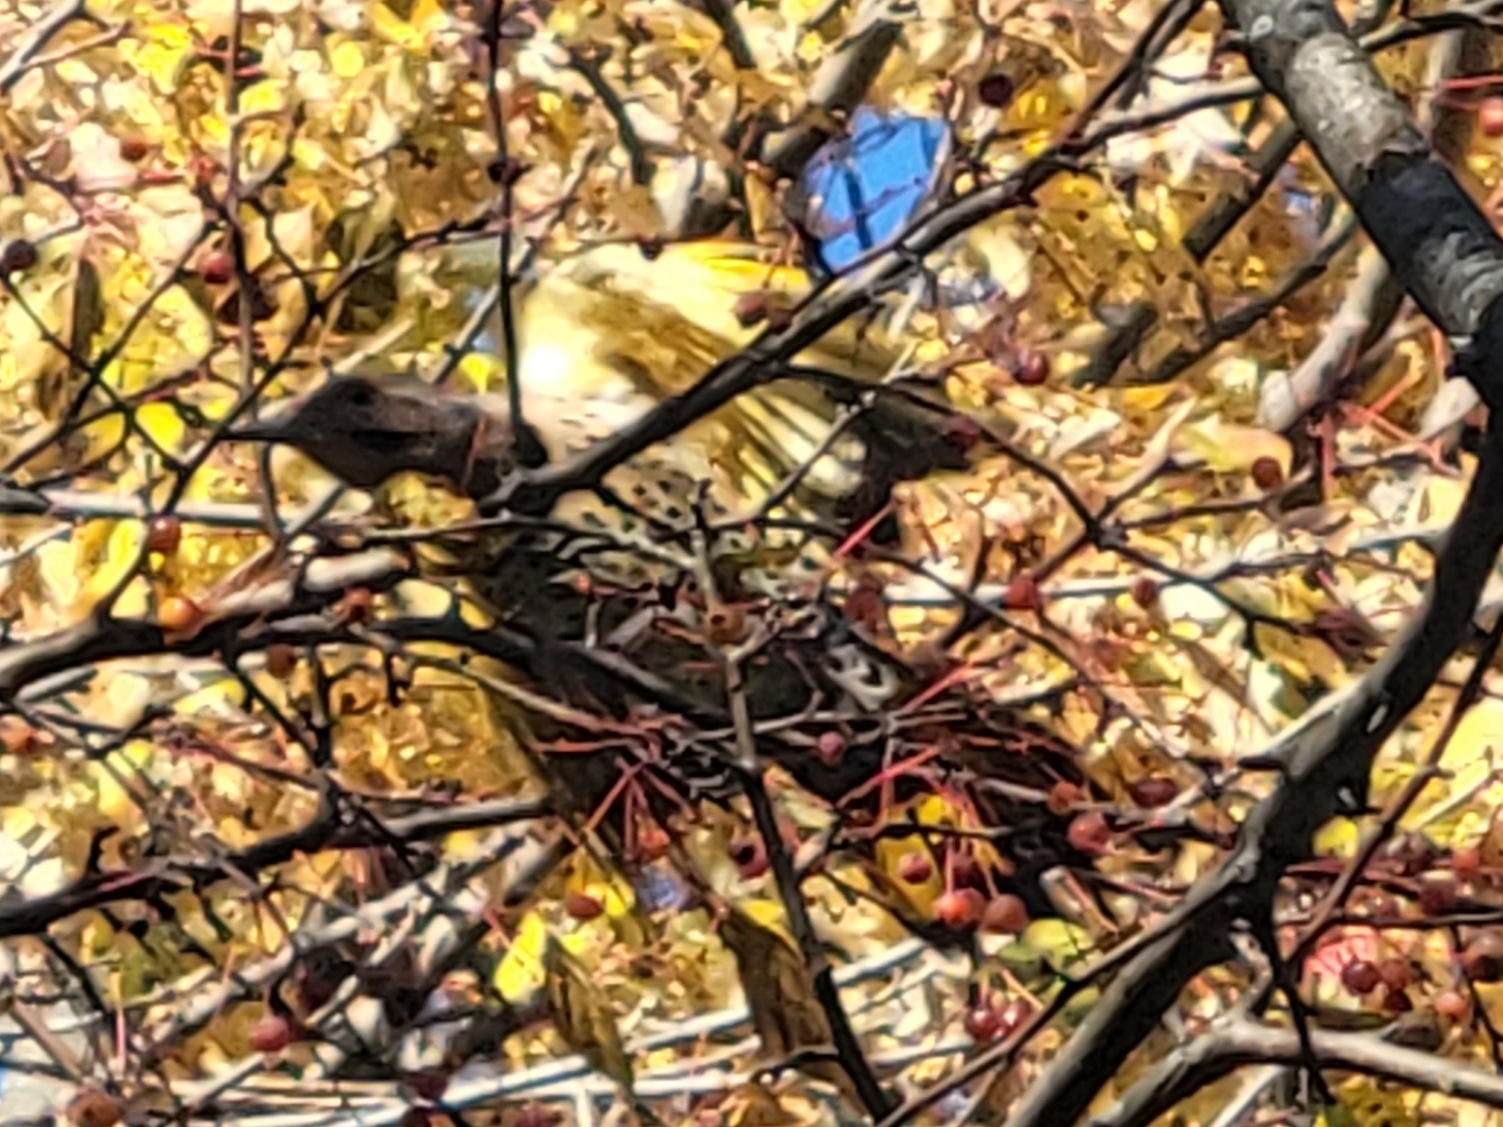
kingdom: Animalia
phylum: Chordata
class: Aves
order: Piciformes
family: Picidae
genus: Colaptes
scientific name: Colaptes auratus
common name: Northern flicker
